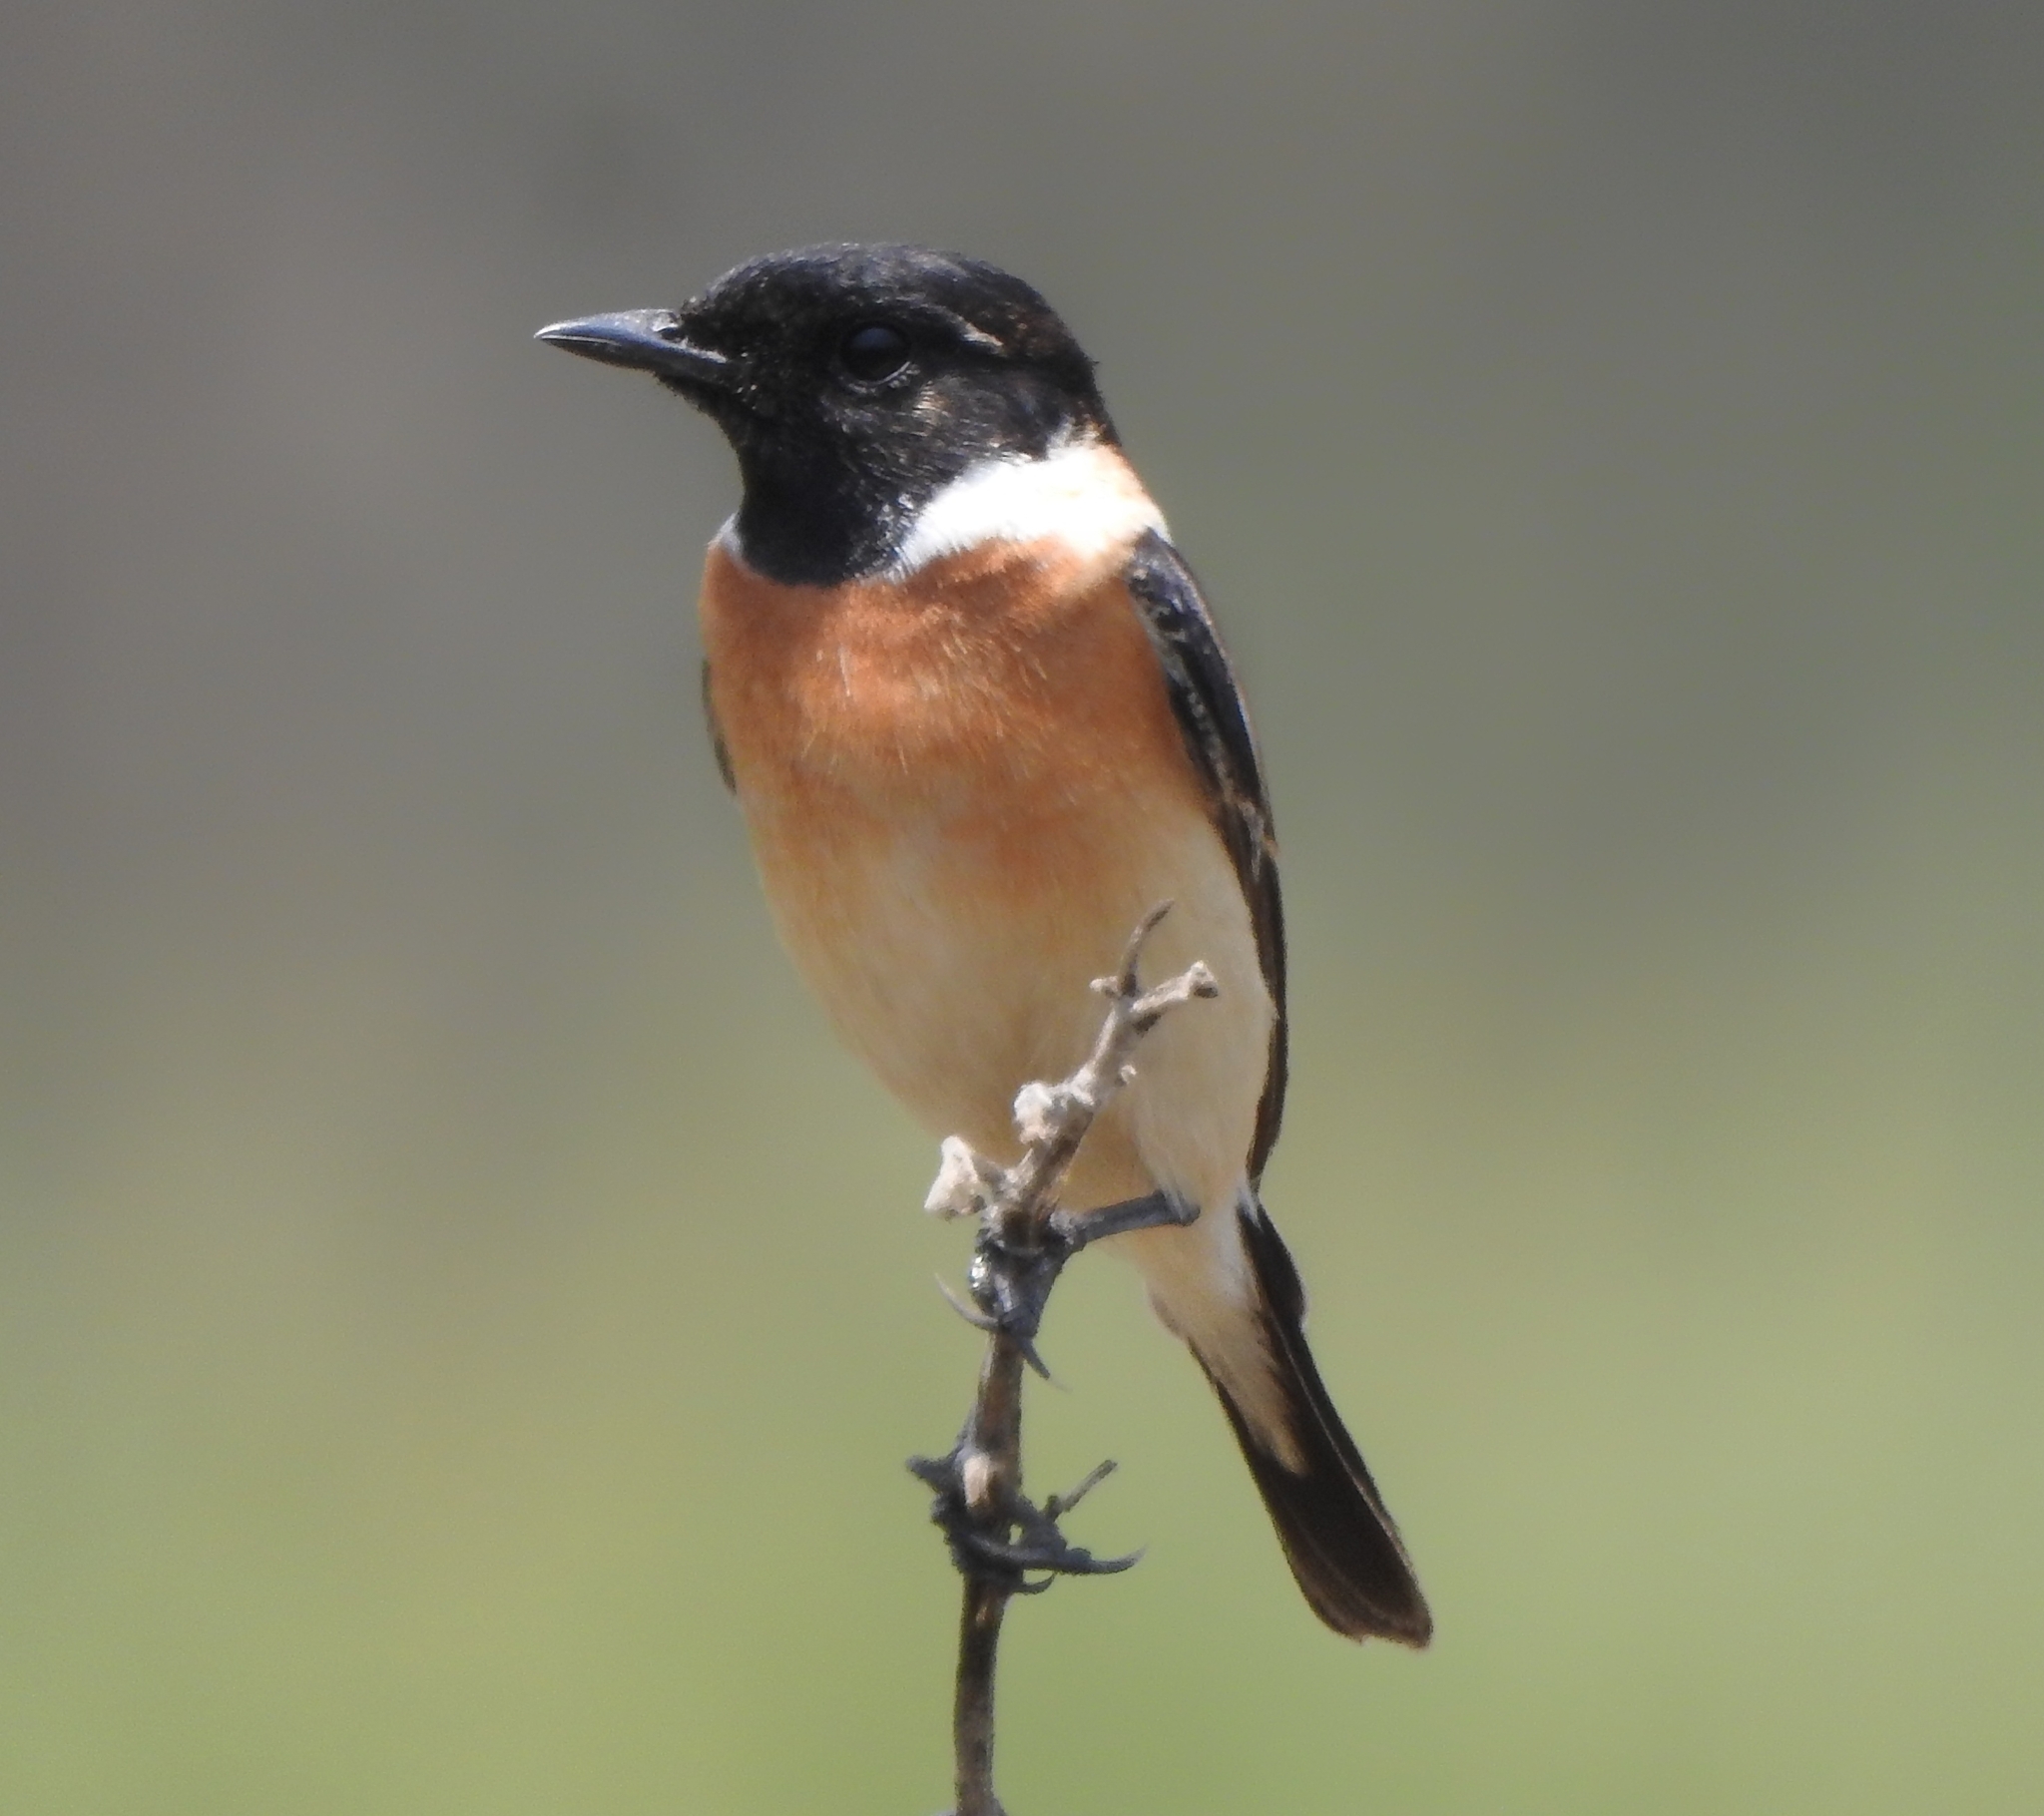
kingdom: Animalia
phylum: Chordata
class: Aves
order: Passeriformes
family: Muscicapidae
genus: Saxicola
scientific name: Saxicola maurus
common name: Siberian stonechat
